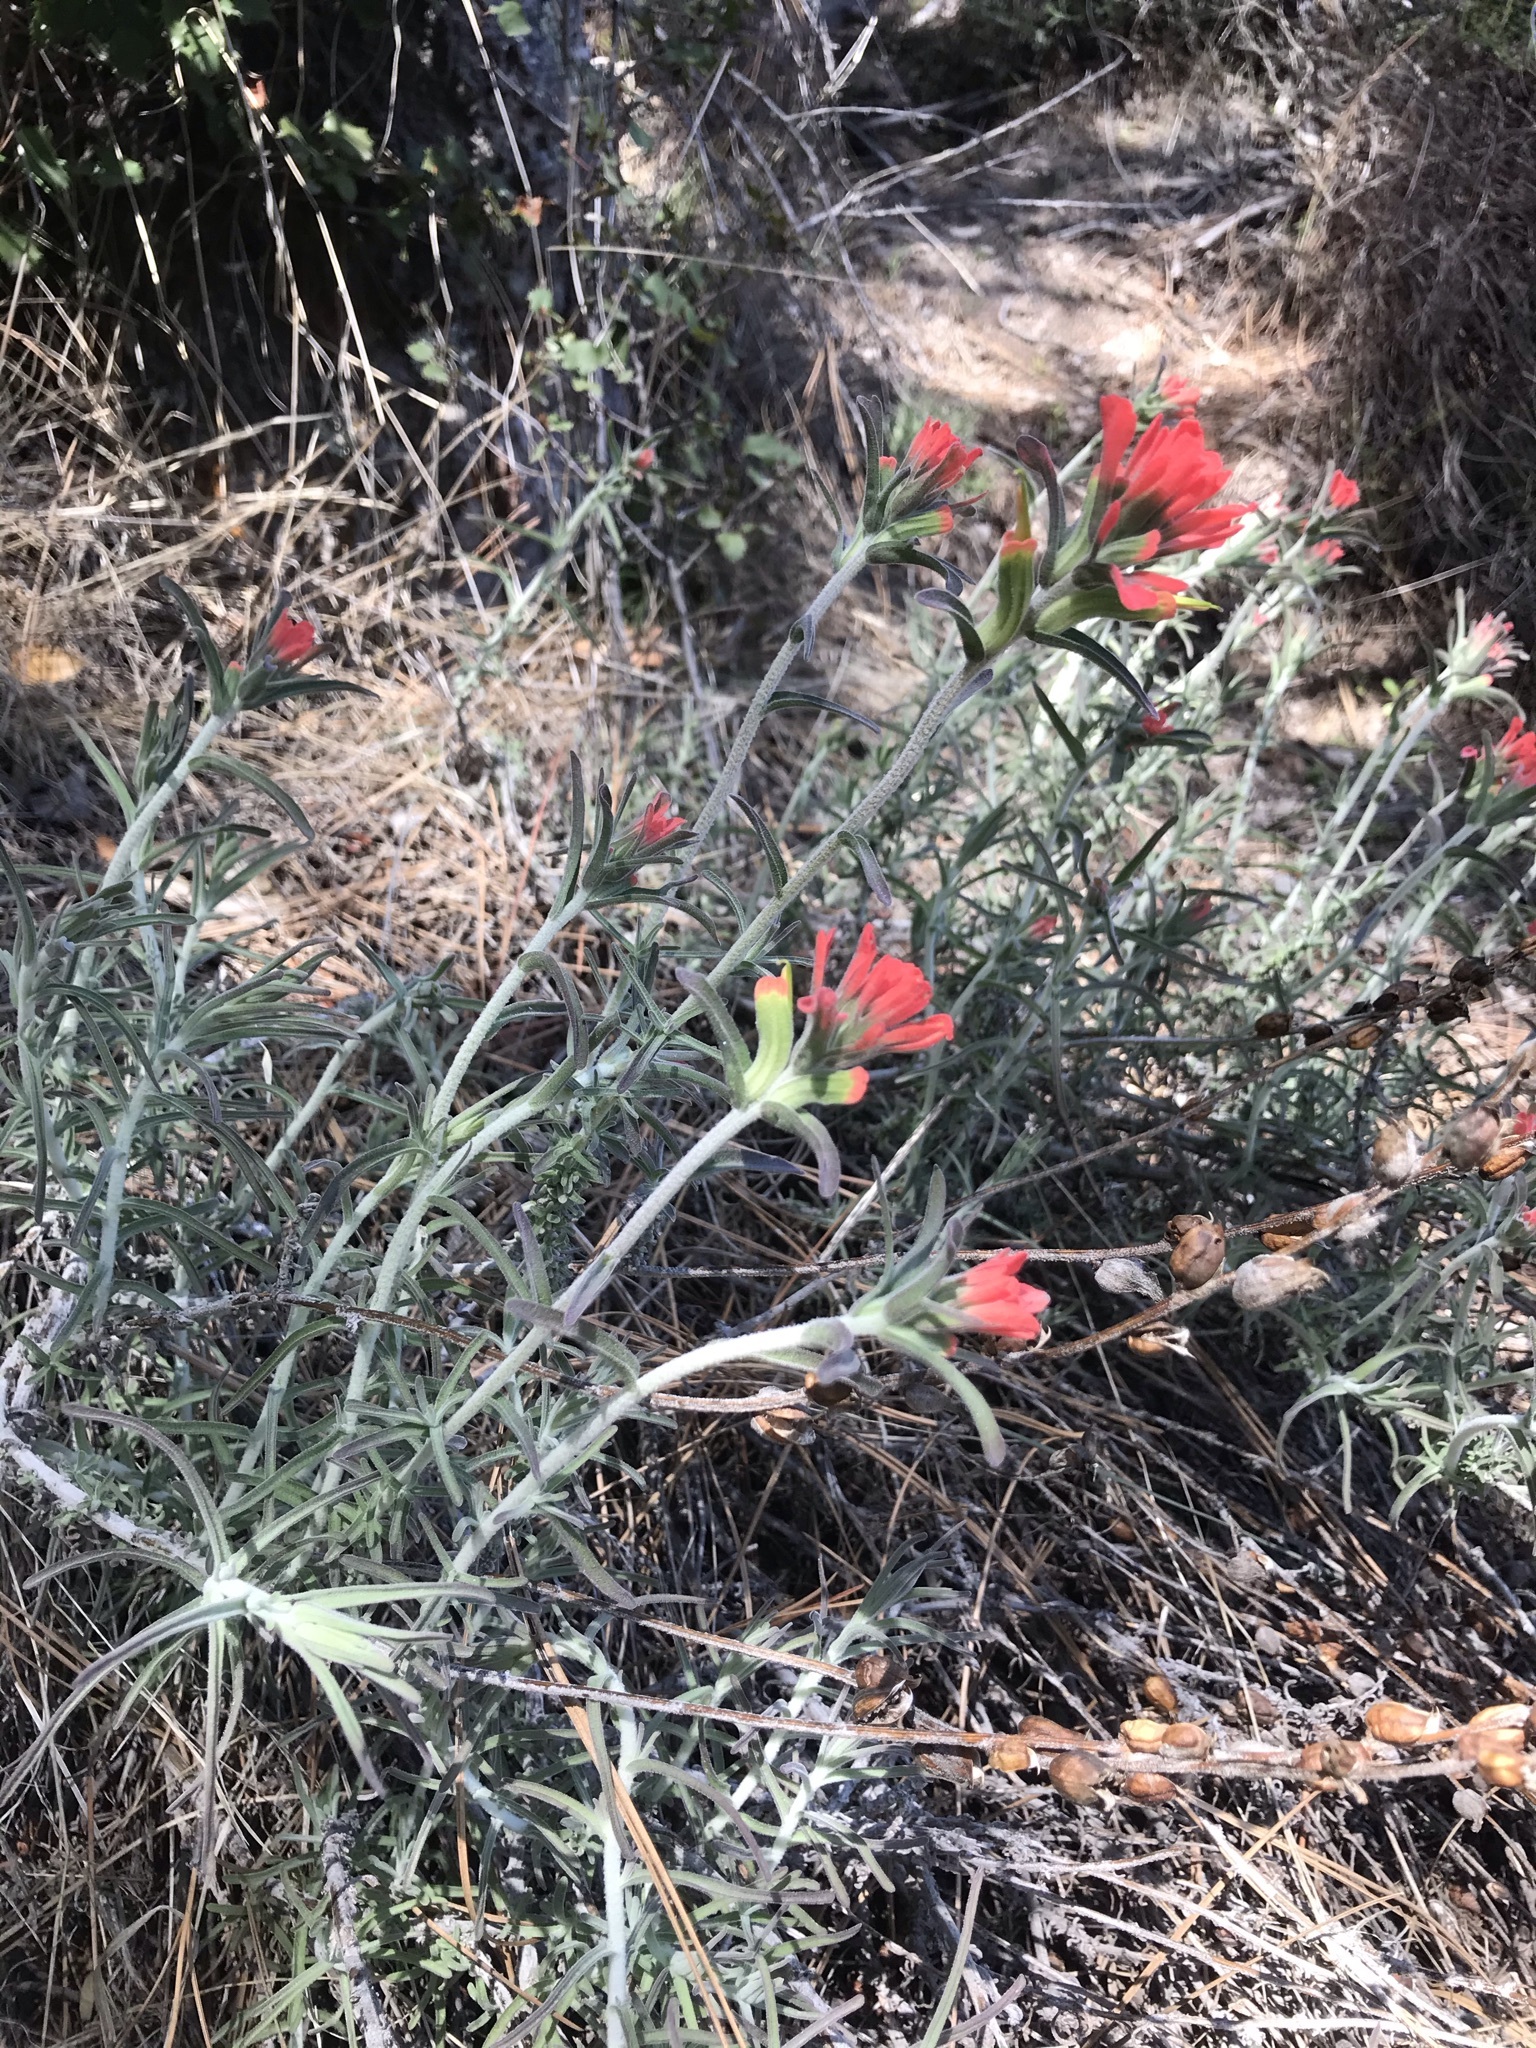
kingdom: Plantae
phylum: Tracheophyta
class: Magnoliopsida
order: Lamiales
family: Orobanchaceae
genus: Castilleja
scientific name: Castilleja foliolosa
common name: Woolly indian paintbrush
